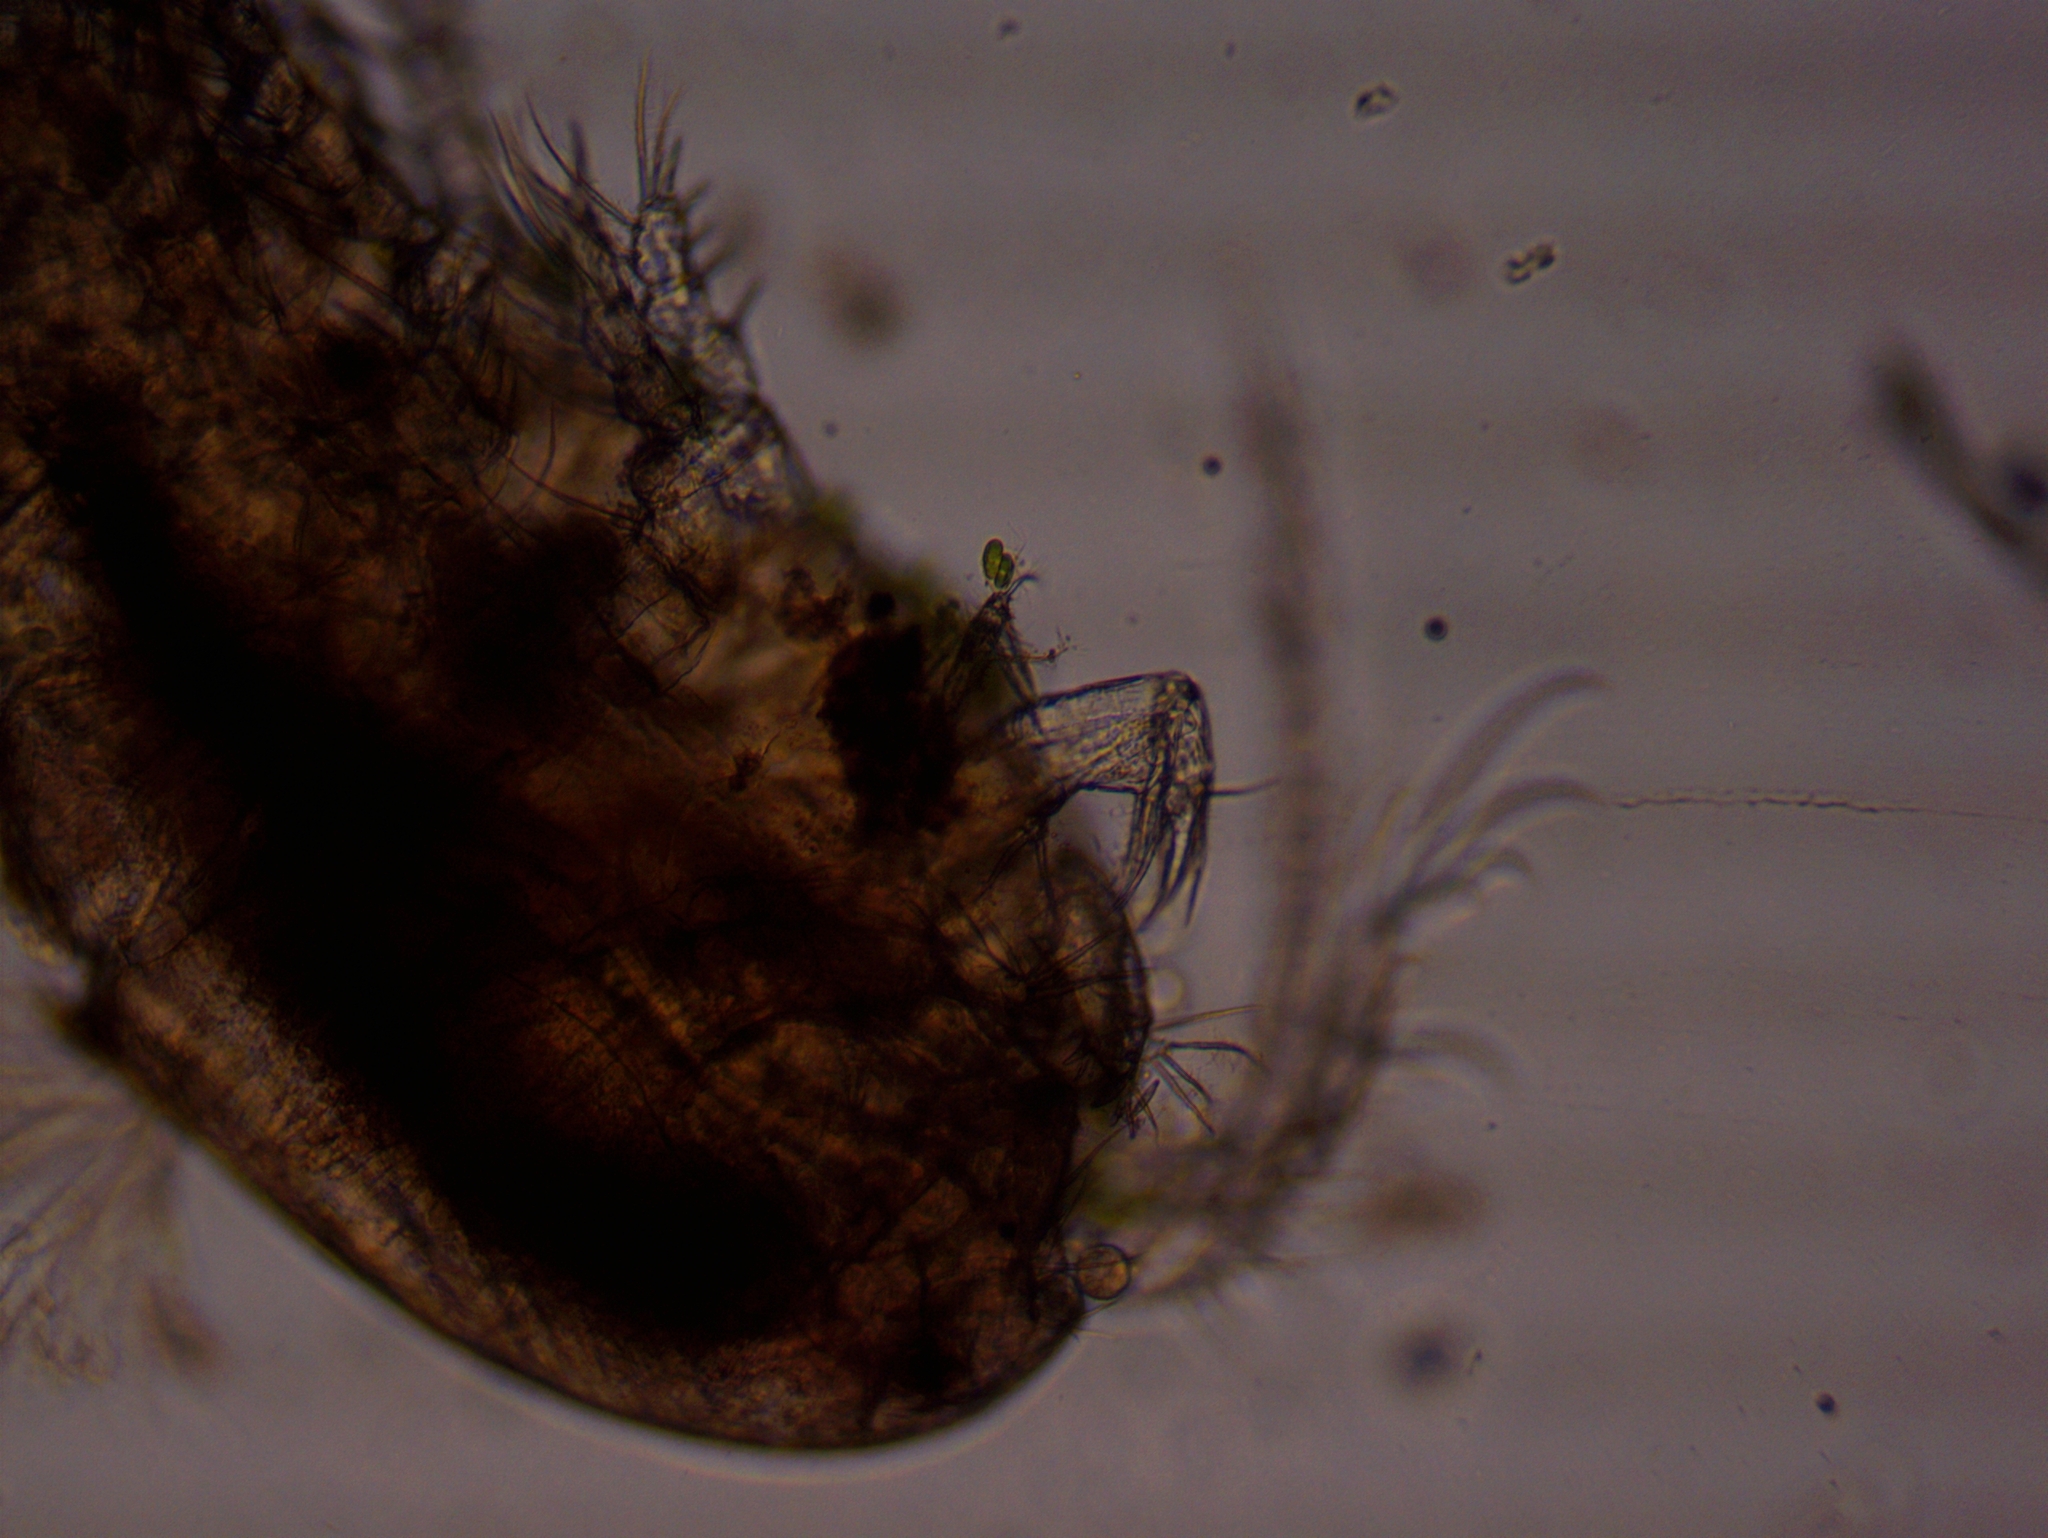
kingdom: Animalia
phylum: Arthropoda
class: Copepoda
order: Cyclopoida
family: Cyclopidae
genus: Acanthocyclops
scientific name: Acanthocyclops
